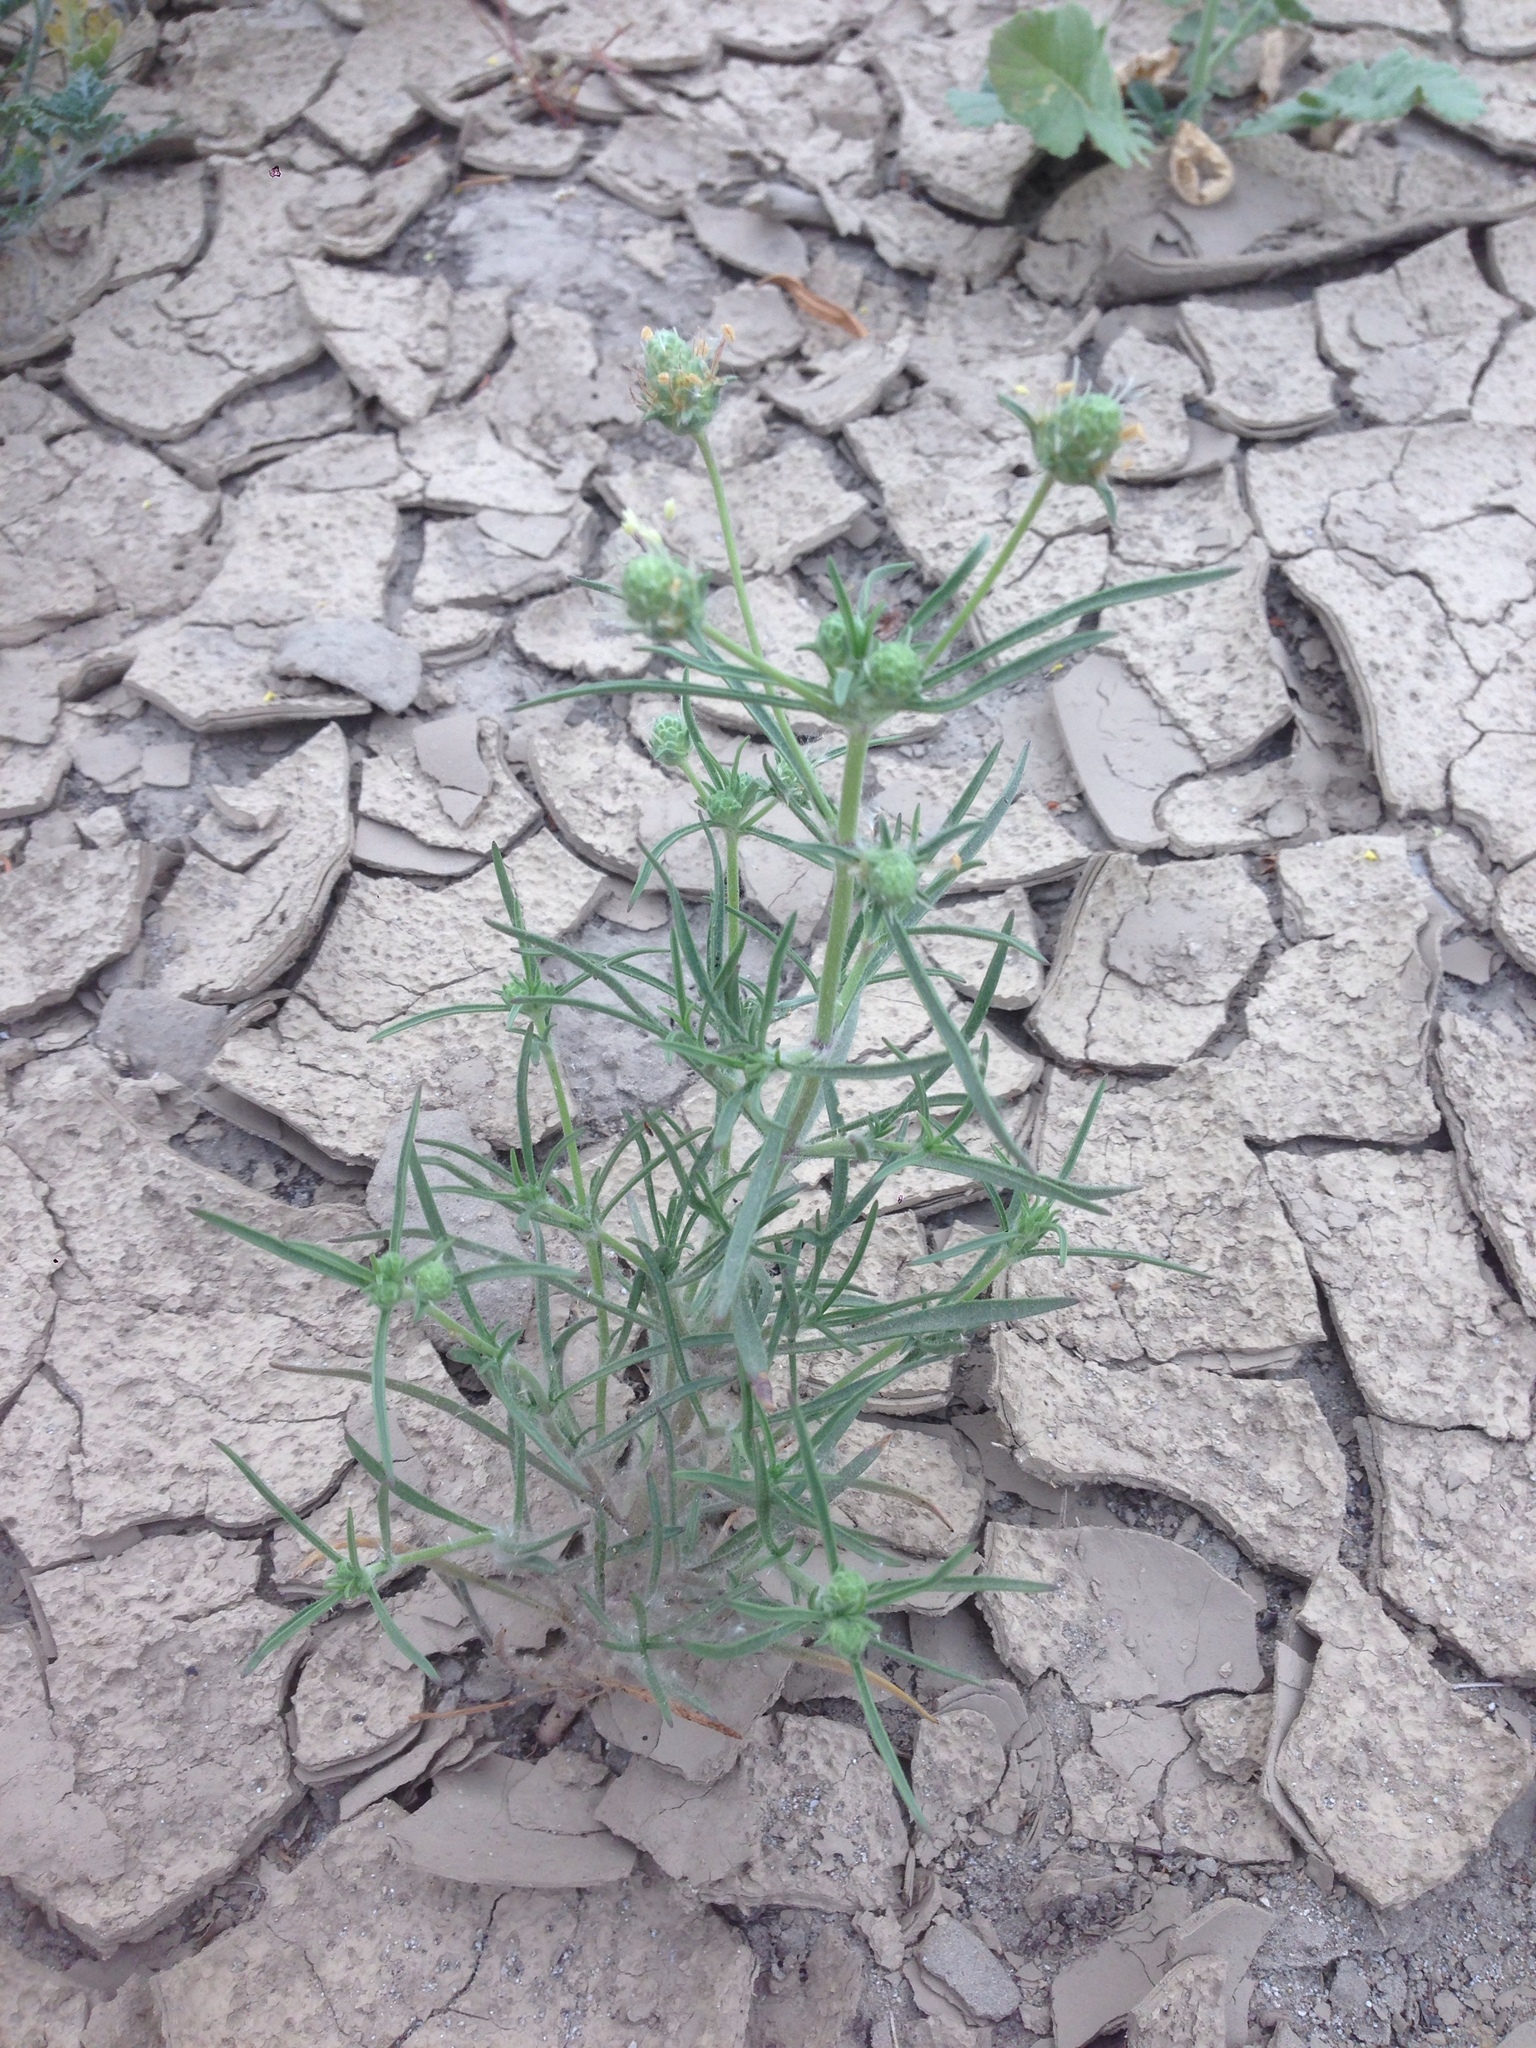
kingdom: Plantae
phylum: Tracheophyta
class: Magnoliopsida
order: Lamiales
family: Plantaginaceae
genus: Plantago
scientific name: Plantago arenaria
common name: Branched plantain
